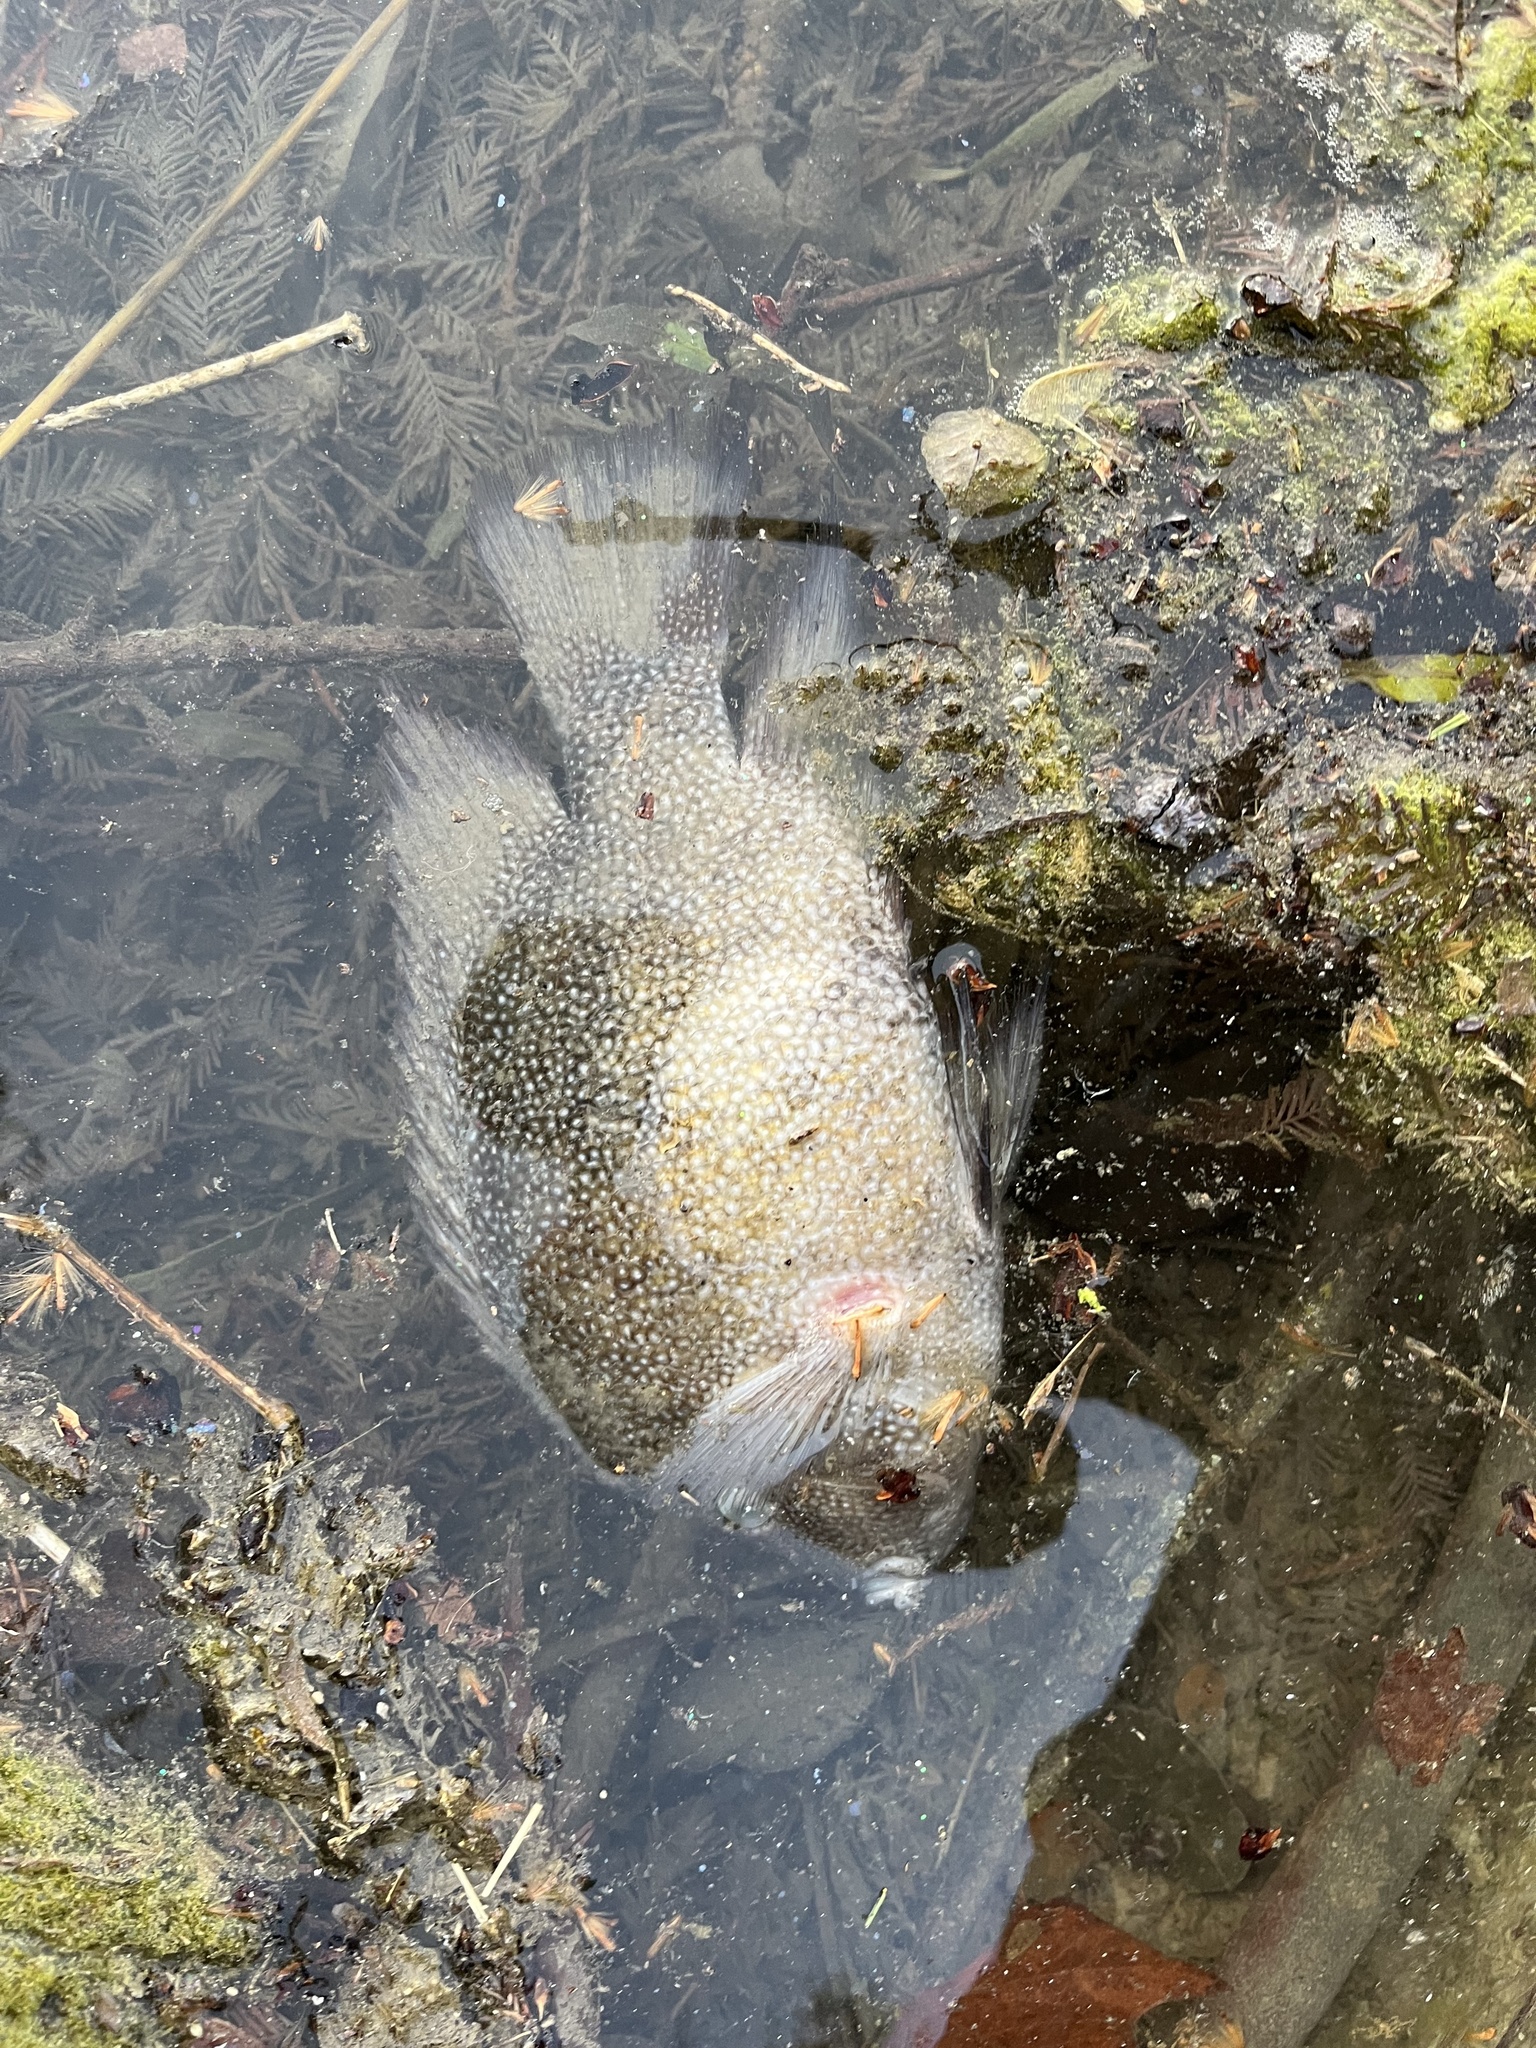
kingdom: Animalia
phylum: Chordata
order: Perciformes
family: Cichlidae
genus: Herichthys
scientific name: Herichthys cyanoguttatus
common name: Rio grande cichlid
